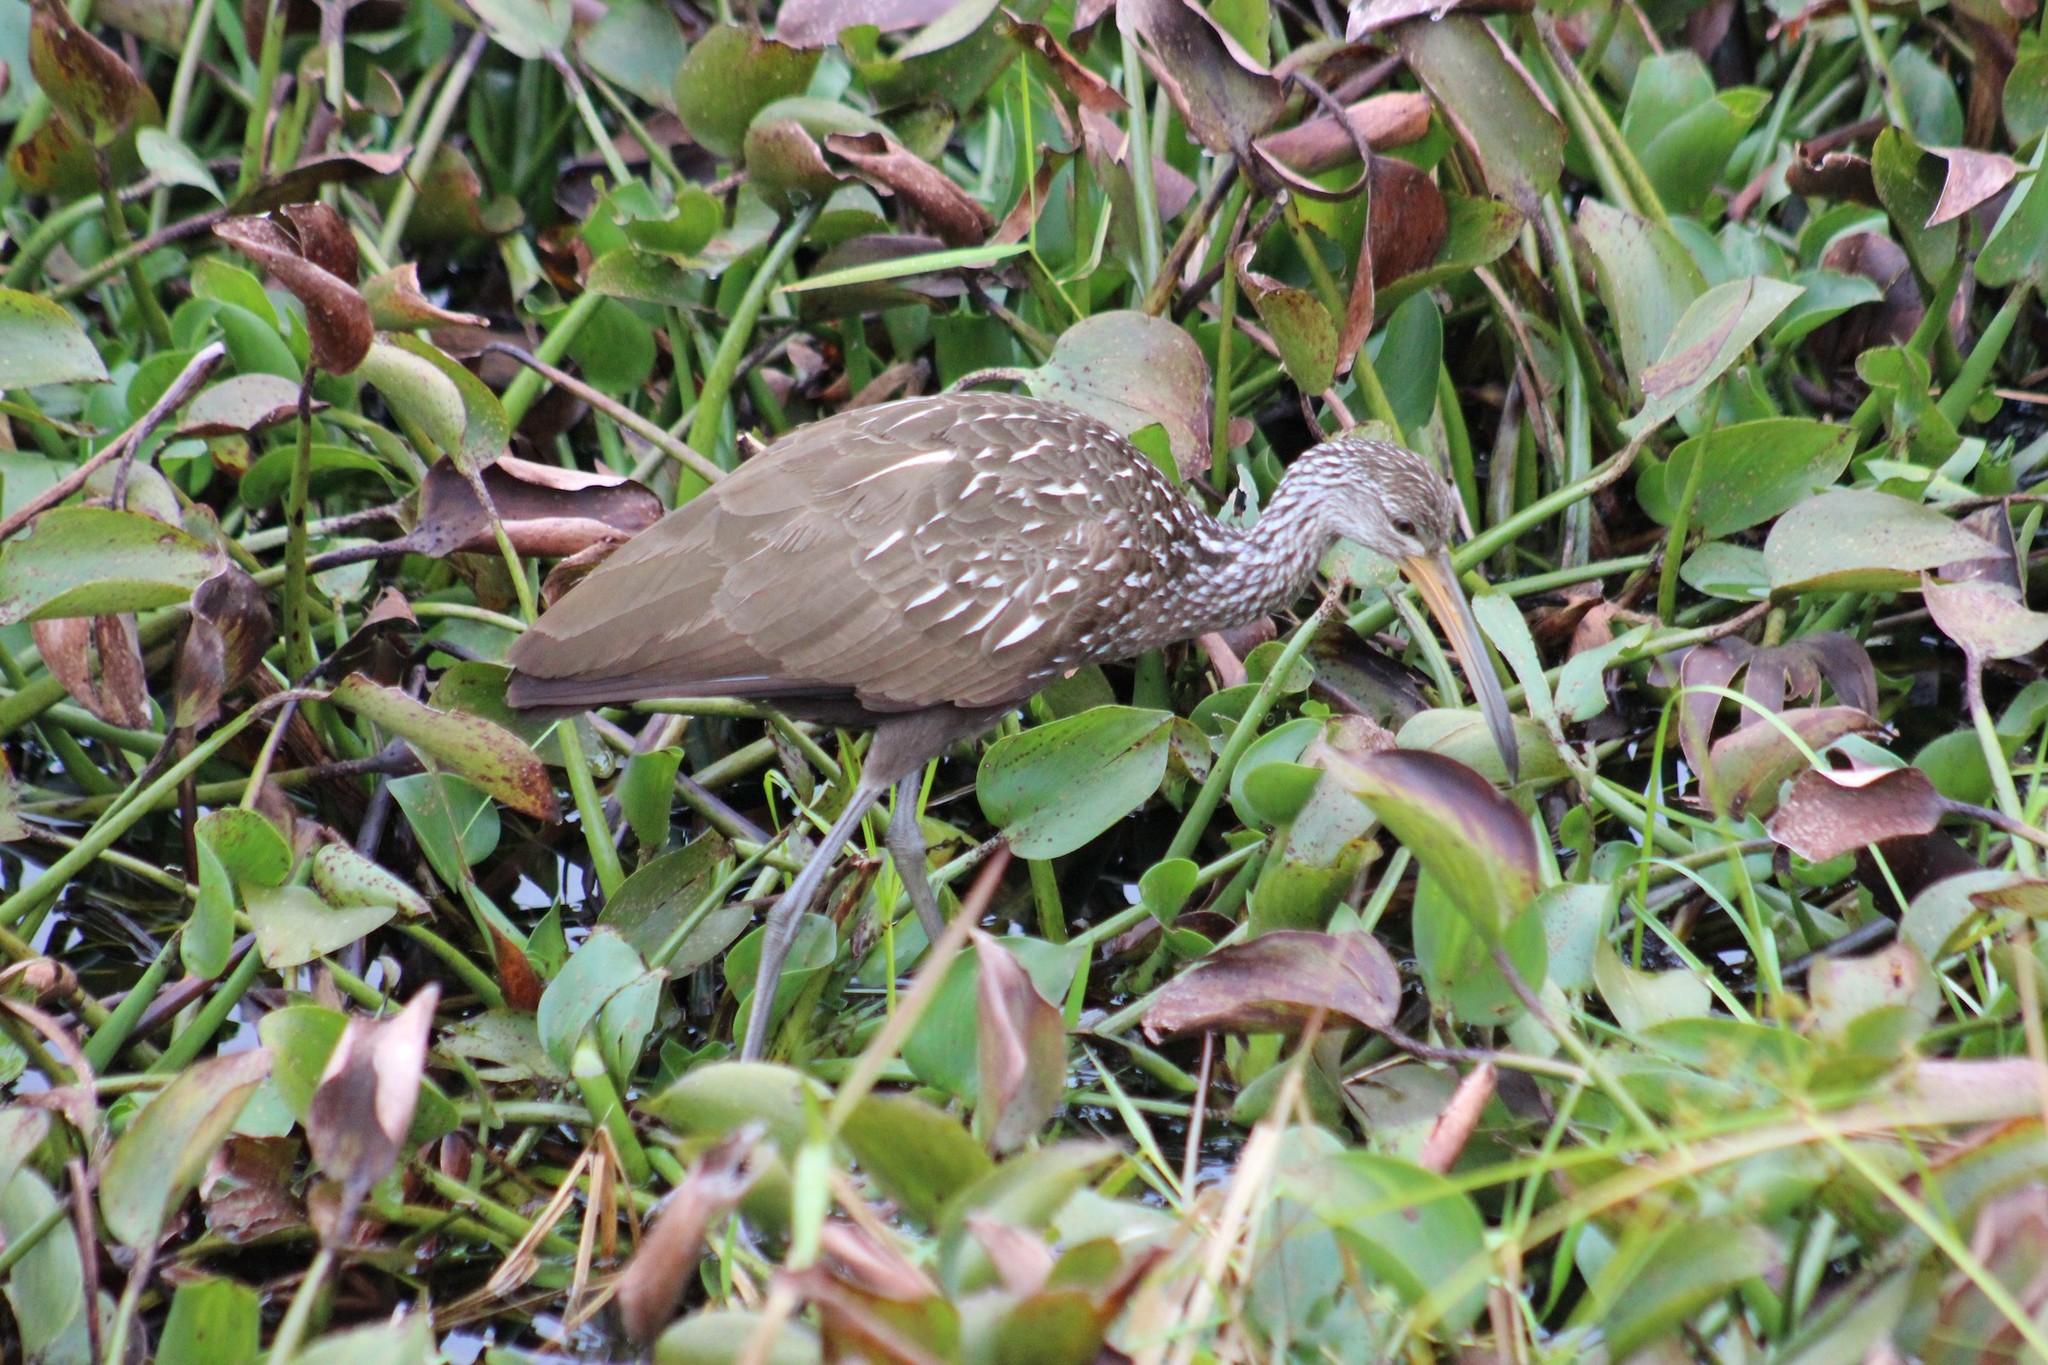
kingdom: Animalia
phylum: Chordata
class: Aves
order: Gruiformes
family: Aramidae
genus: Aramus
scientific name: Aramus guarauna
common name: Limpkin
